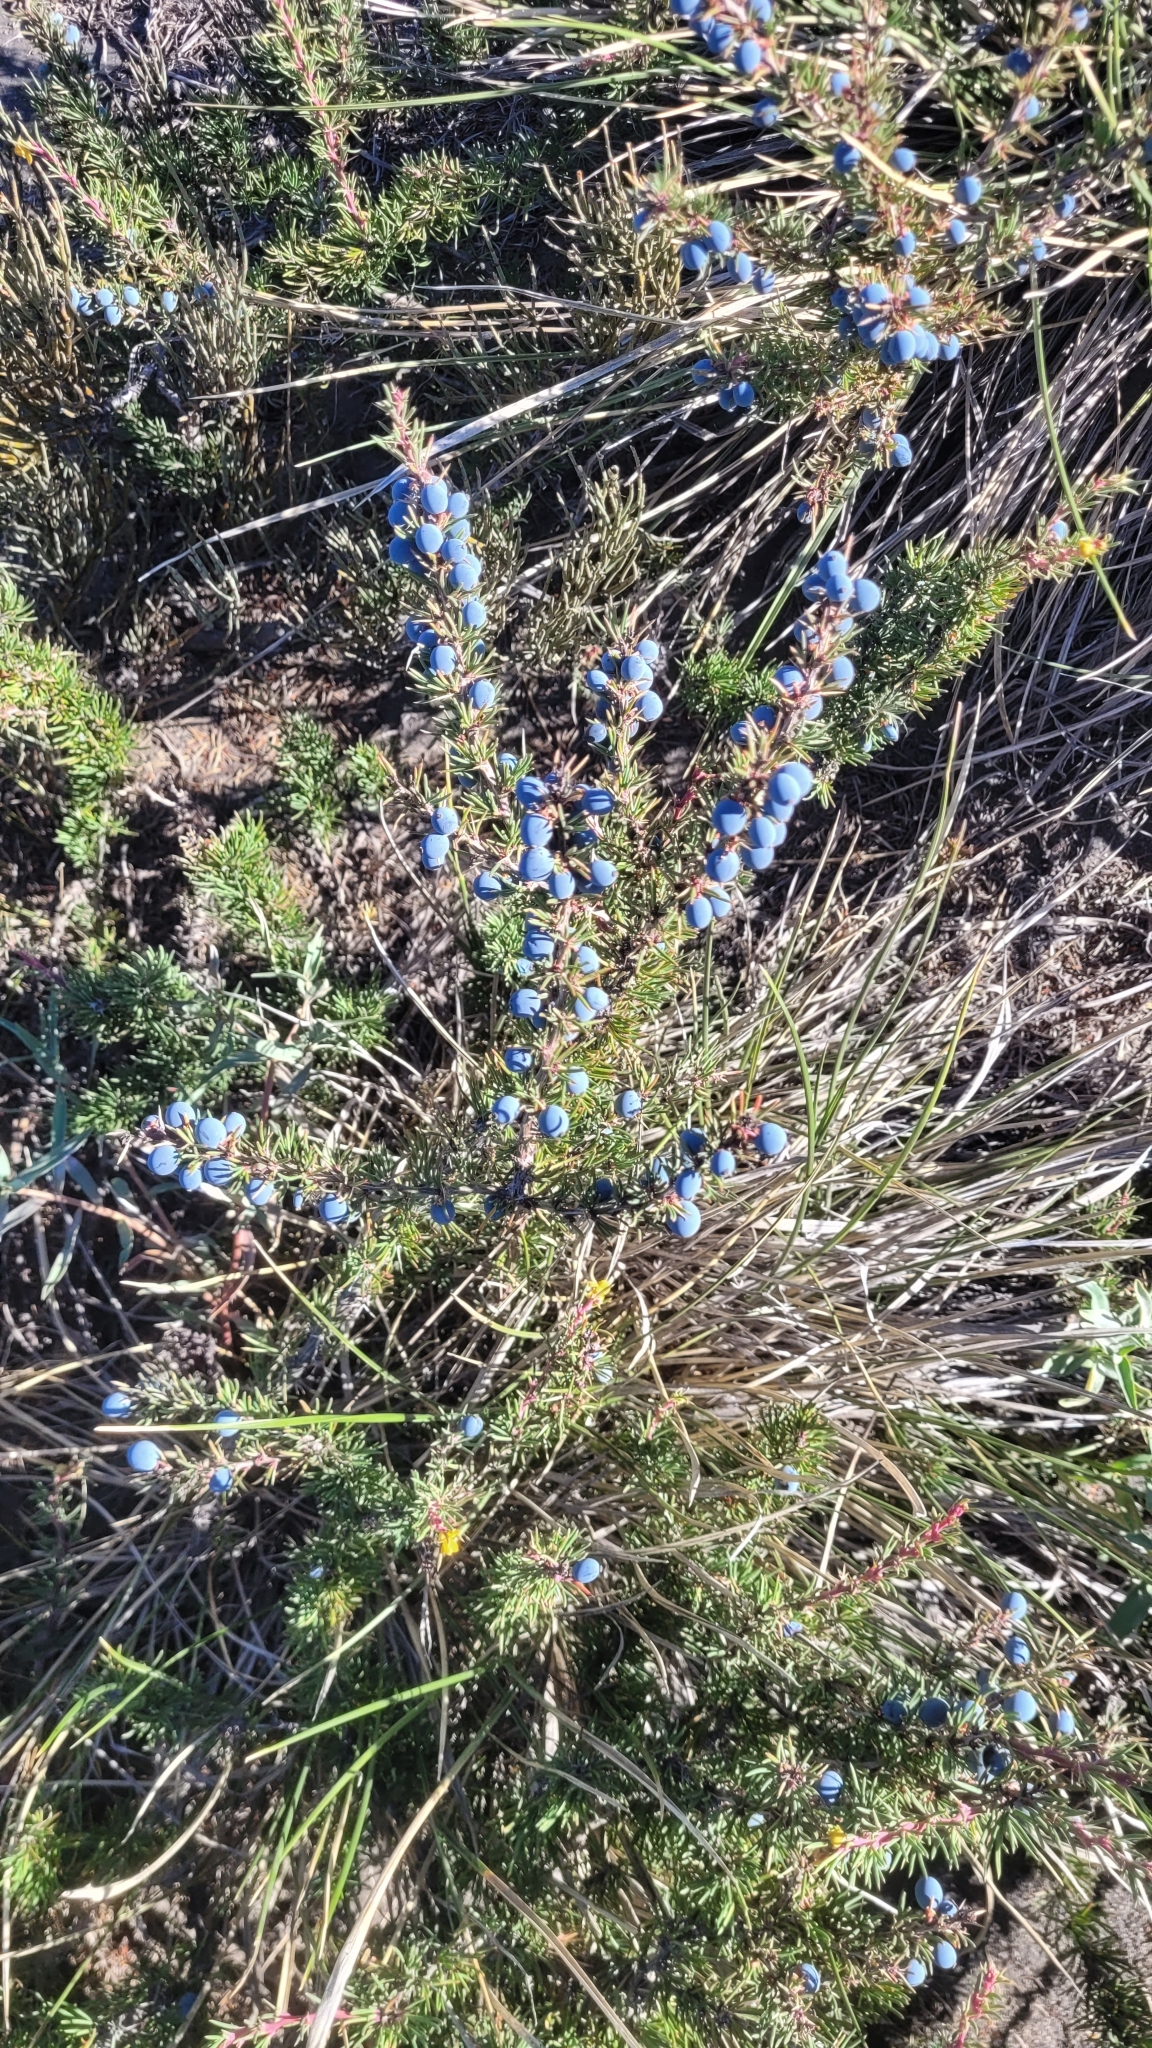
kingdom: Plantae
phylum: Tracheophyta
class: Magnoliopsida
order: Ranunculales
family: Berberidaceae
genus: Berberis
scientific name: Berberis empetrifolia
